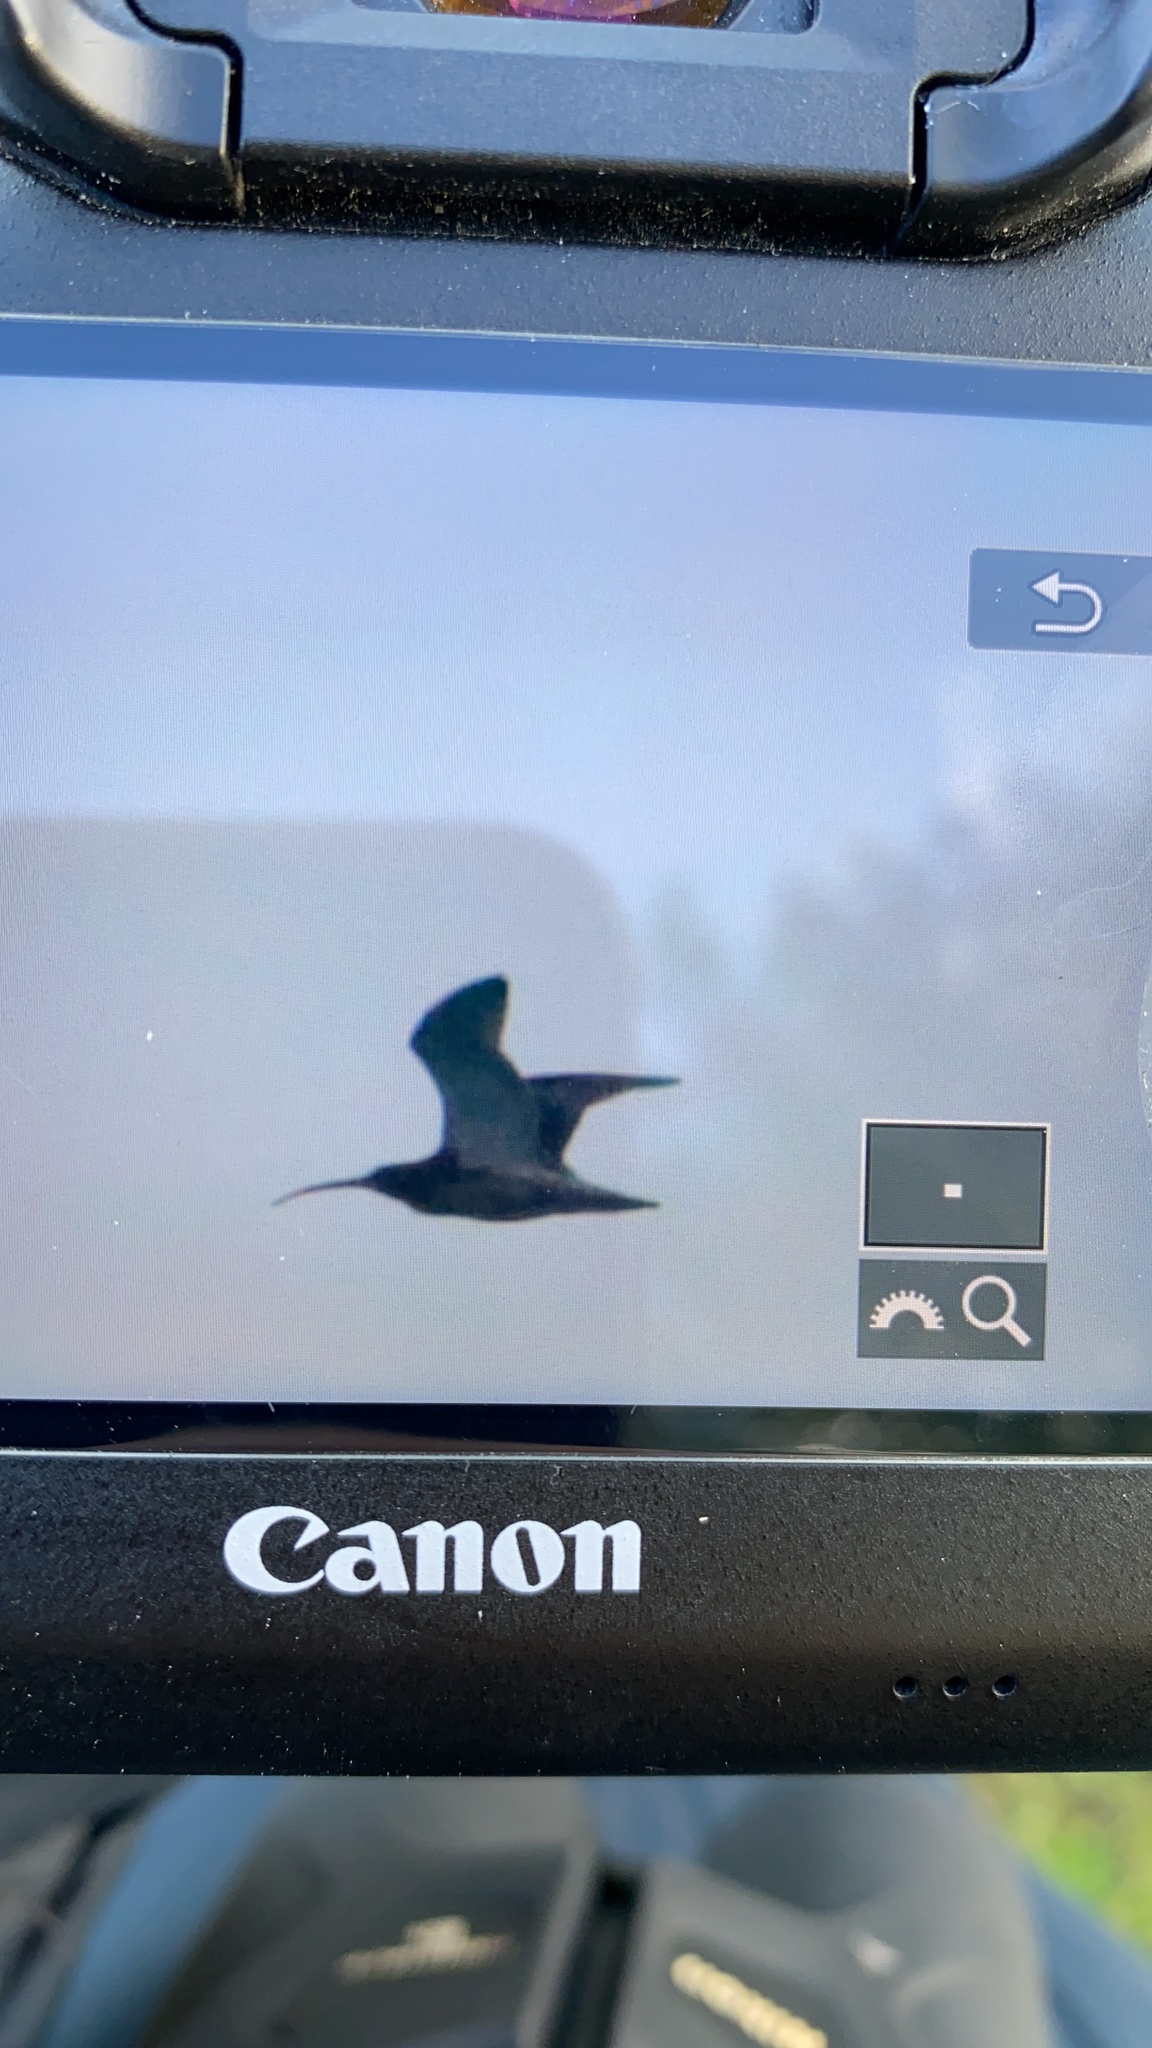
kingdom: Animalia
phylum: Chordata
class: Aves
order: Charadriiformes
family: Scolopacidae
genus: Numenius
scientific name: Numenius arquata
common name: Eurasian curlew
